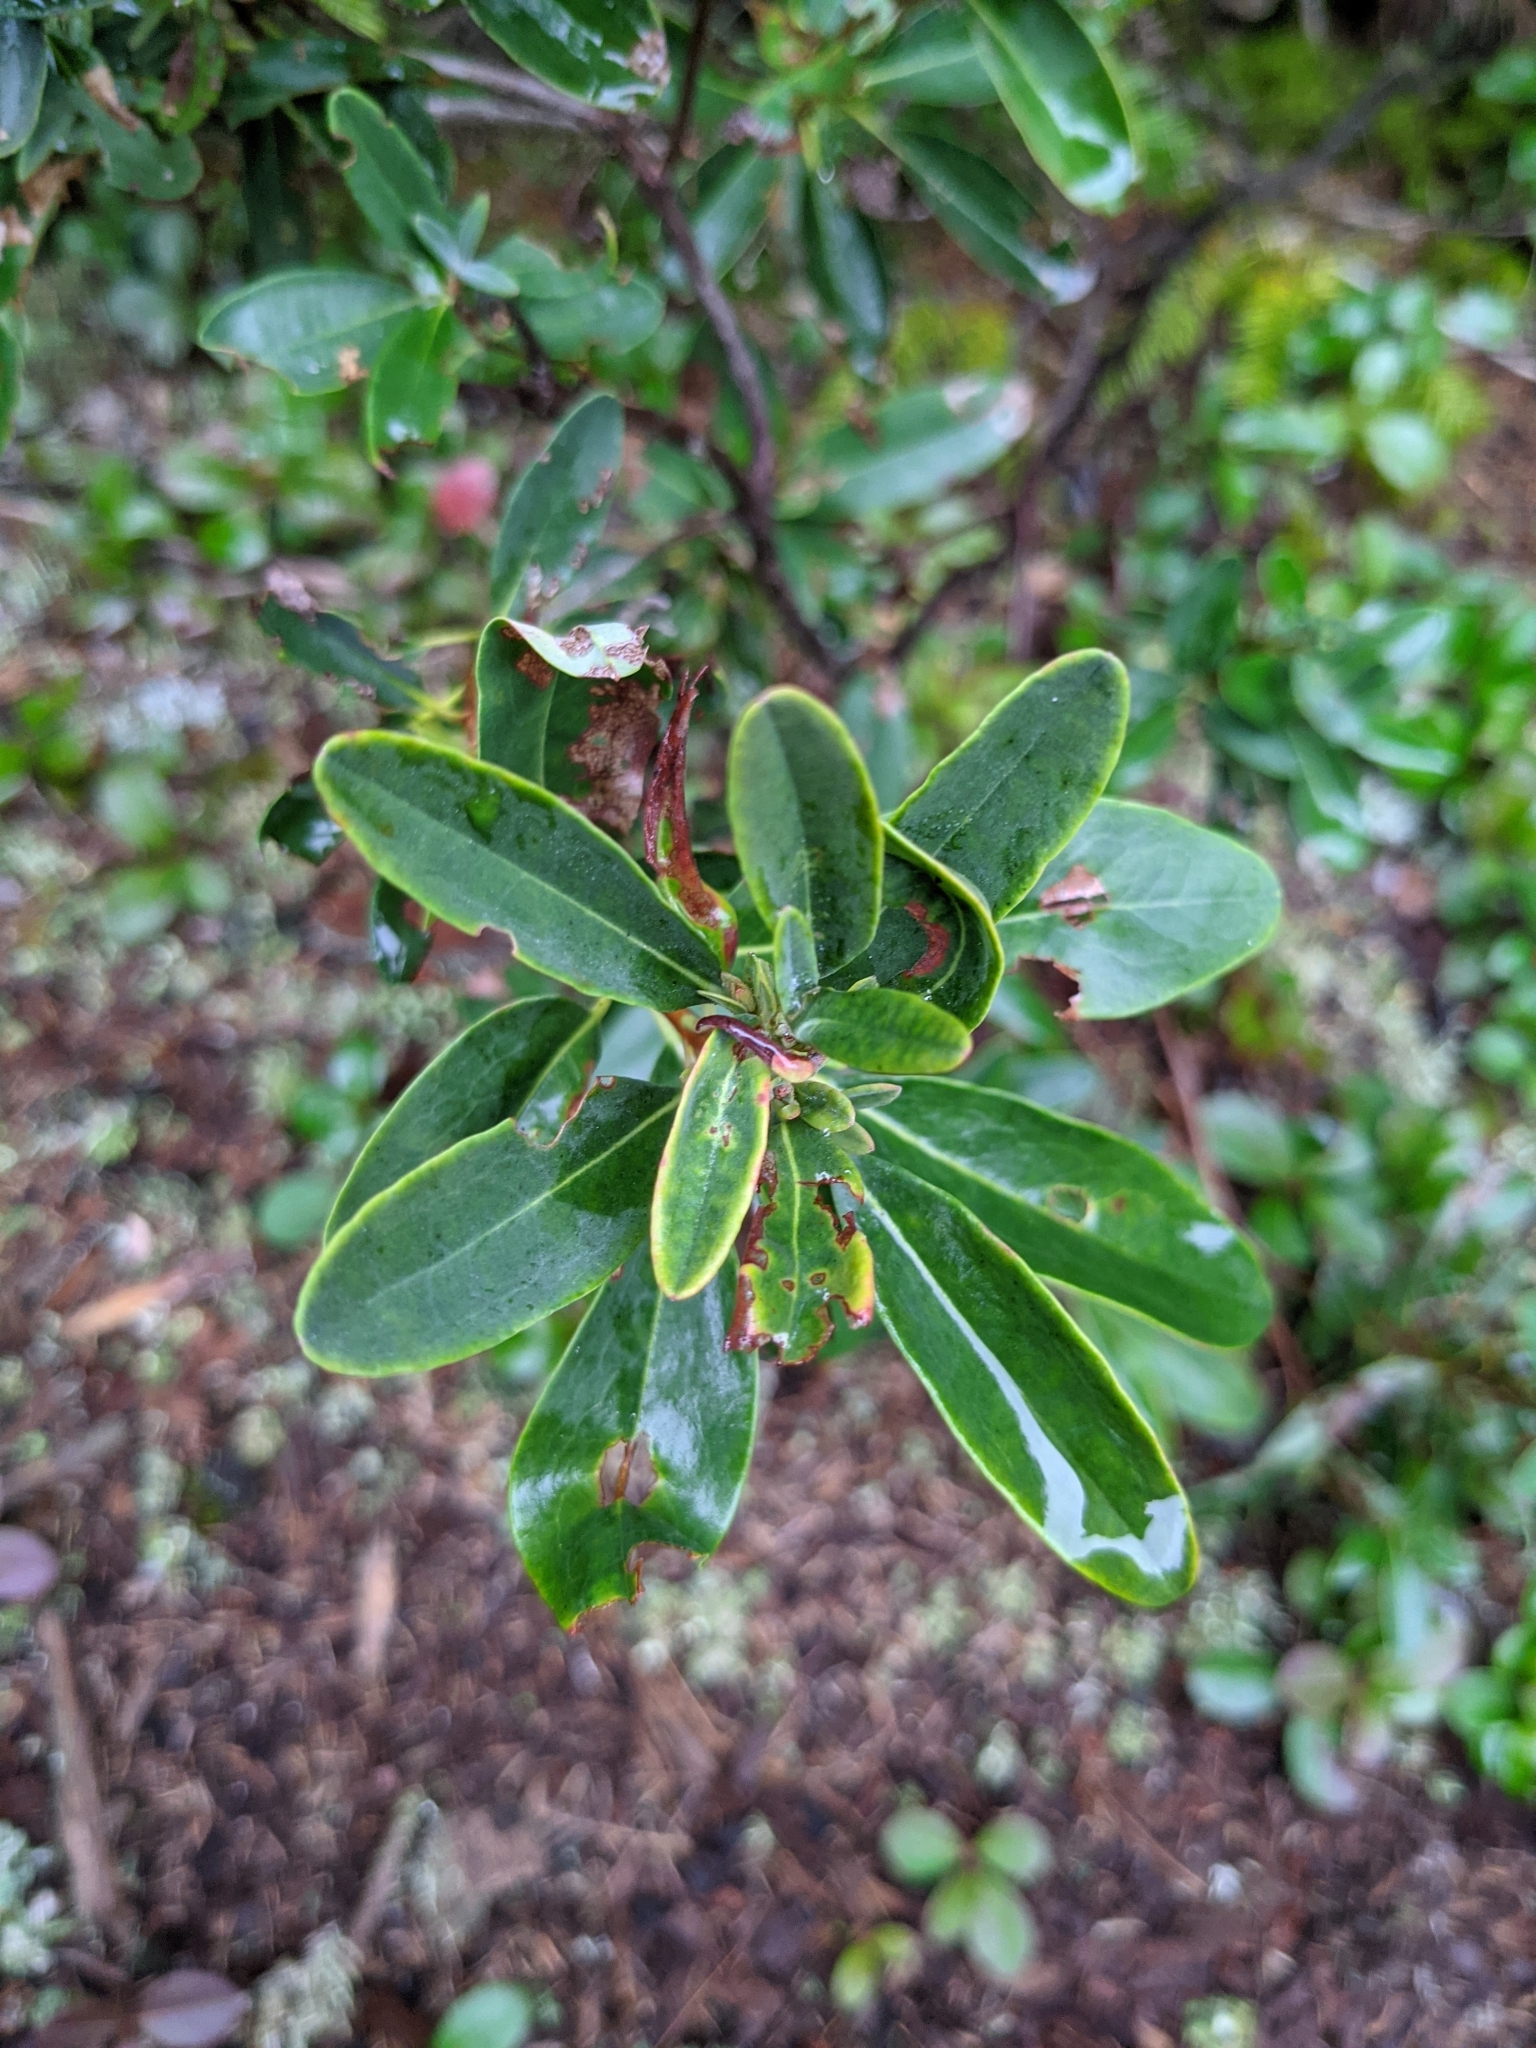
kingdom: Plantae
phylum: Tracheophyta
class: Magnoliopsida
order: Ericales
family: Ericaceae
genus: Kalmia
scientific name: Kalmia angustifolia
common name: Sheep-laurel
